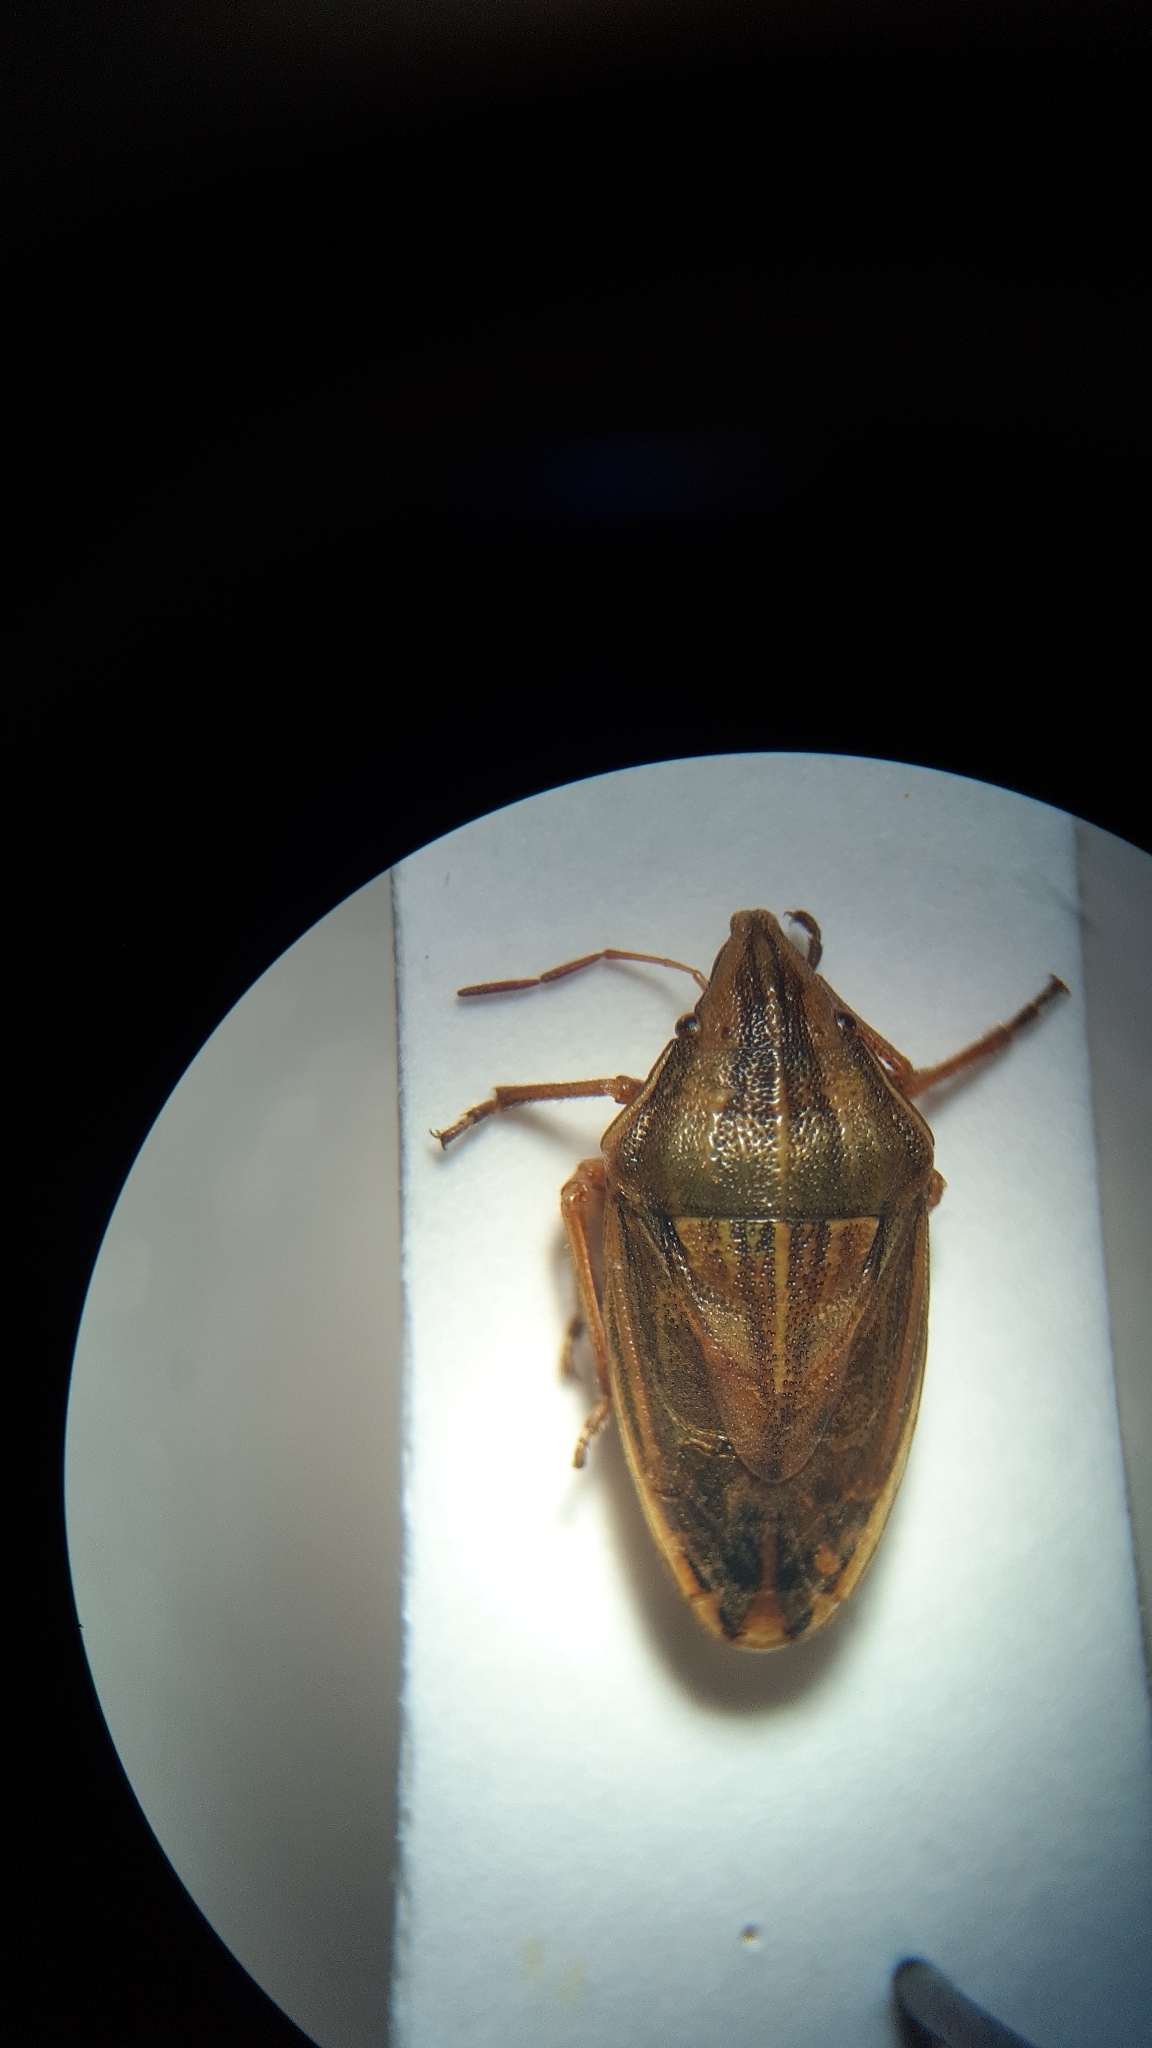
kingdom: Animalia
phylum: Arthropoda
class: Insecta
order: Hemiptera
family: Pentatomidae
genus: Aelia
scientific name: Aelia acuminata
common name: Bishop's mitre
